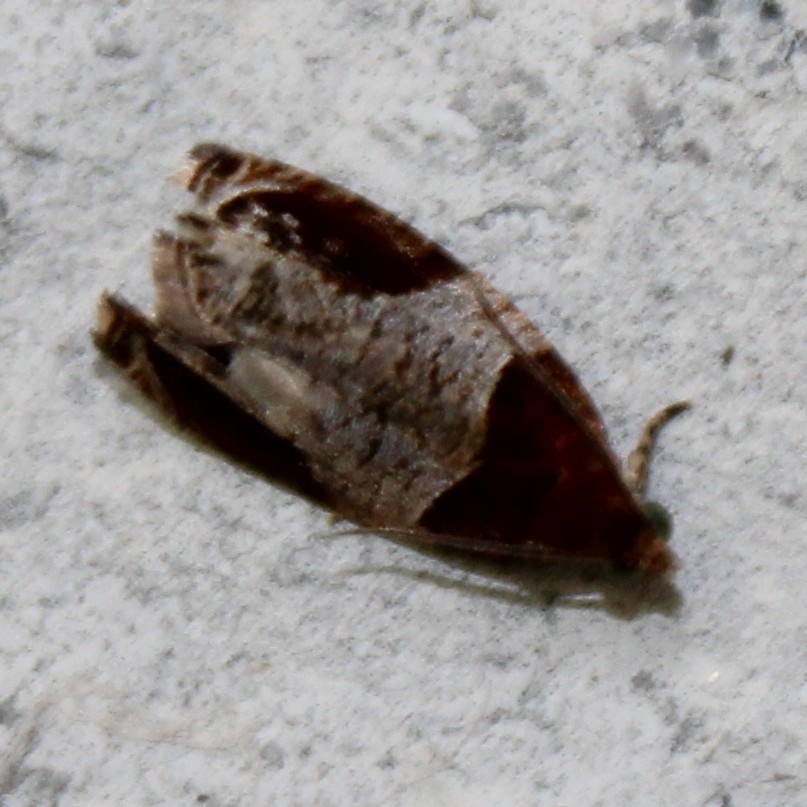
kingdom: Animalia
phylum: Arthropoda
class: Insecta
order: Lepidoptera
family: Tortricidae
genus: Olethreutes
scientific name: Olethreutes ferriferana
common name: Hydrangea leaftier moth
